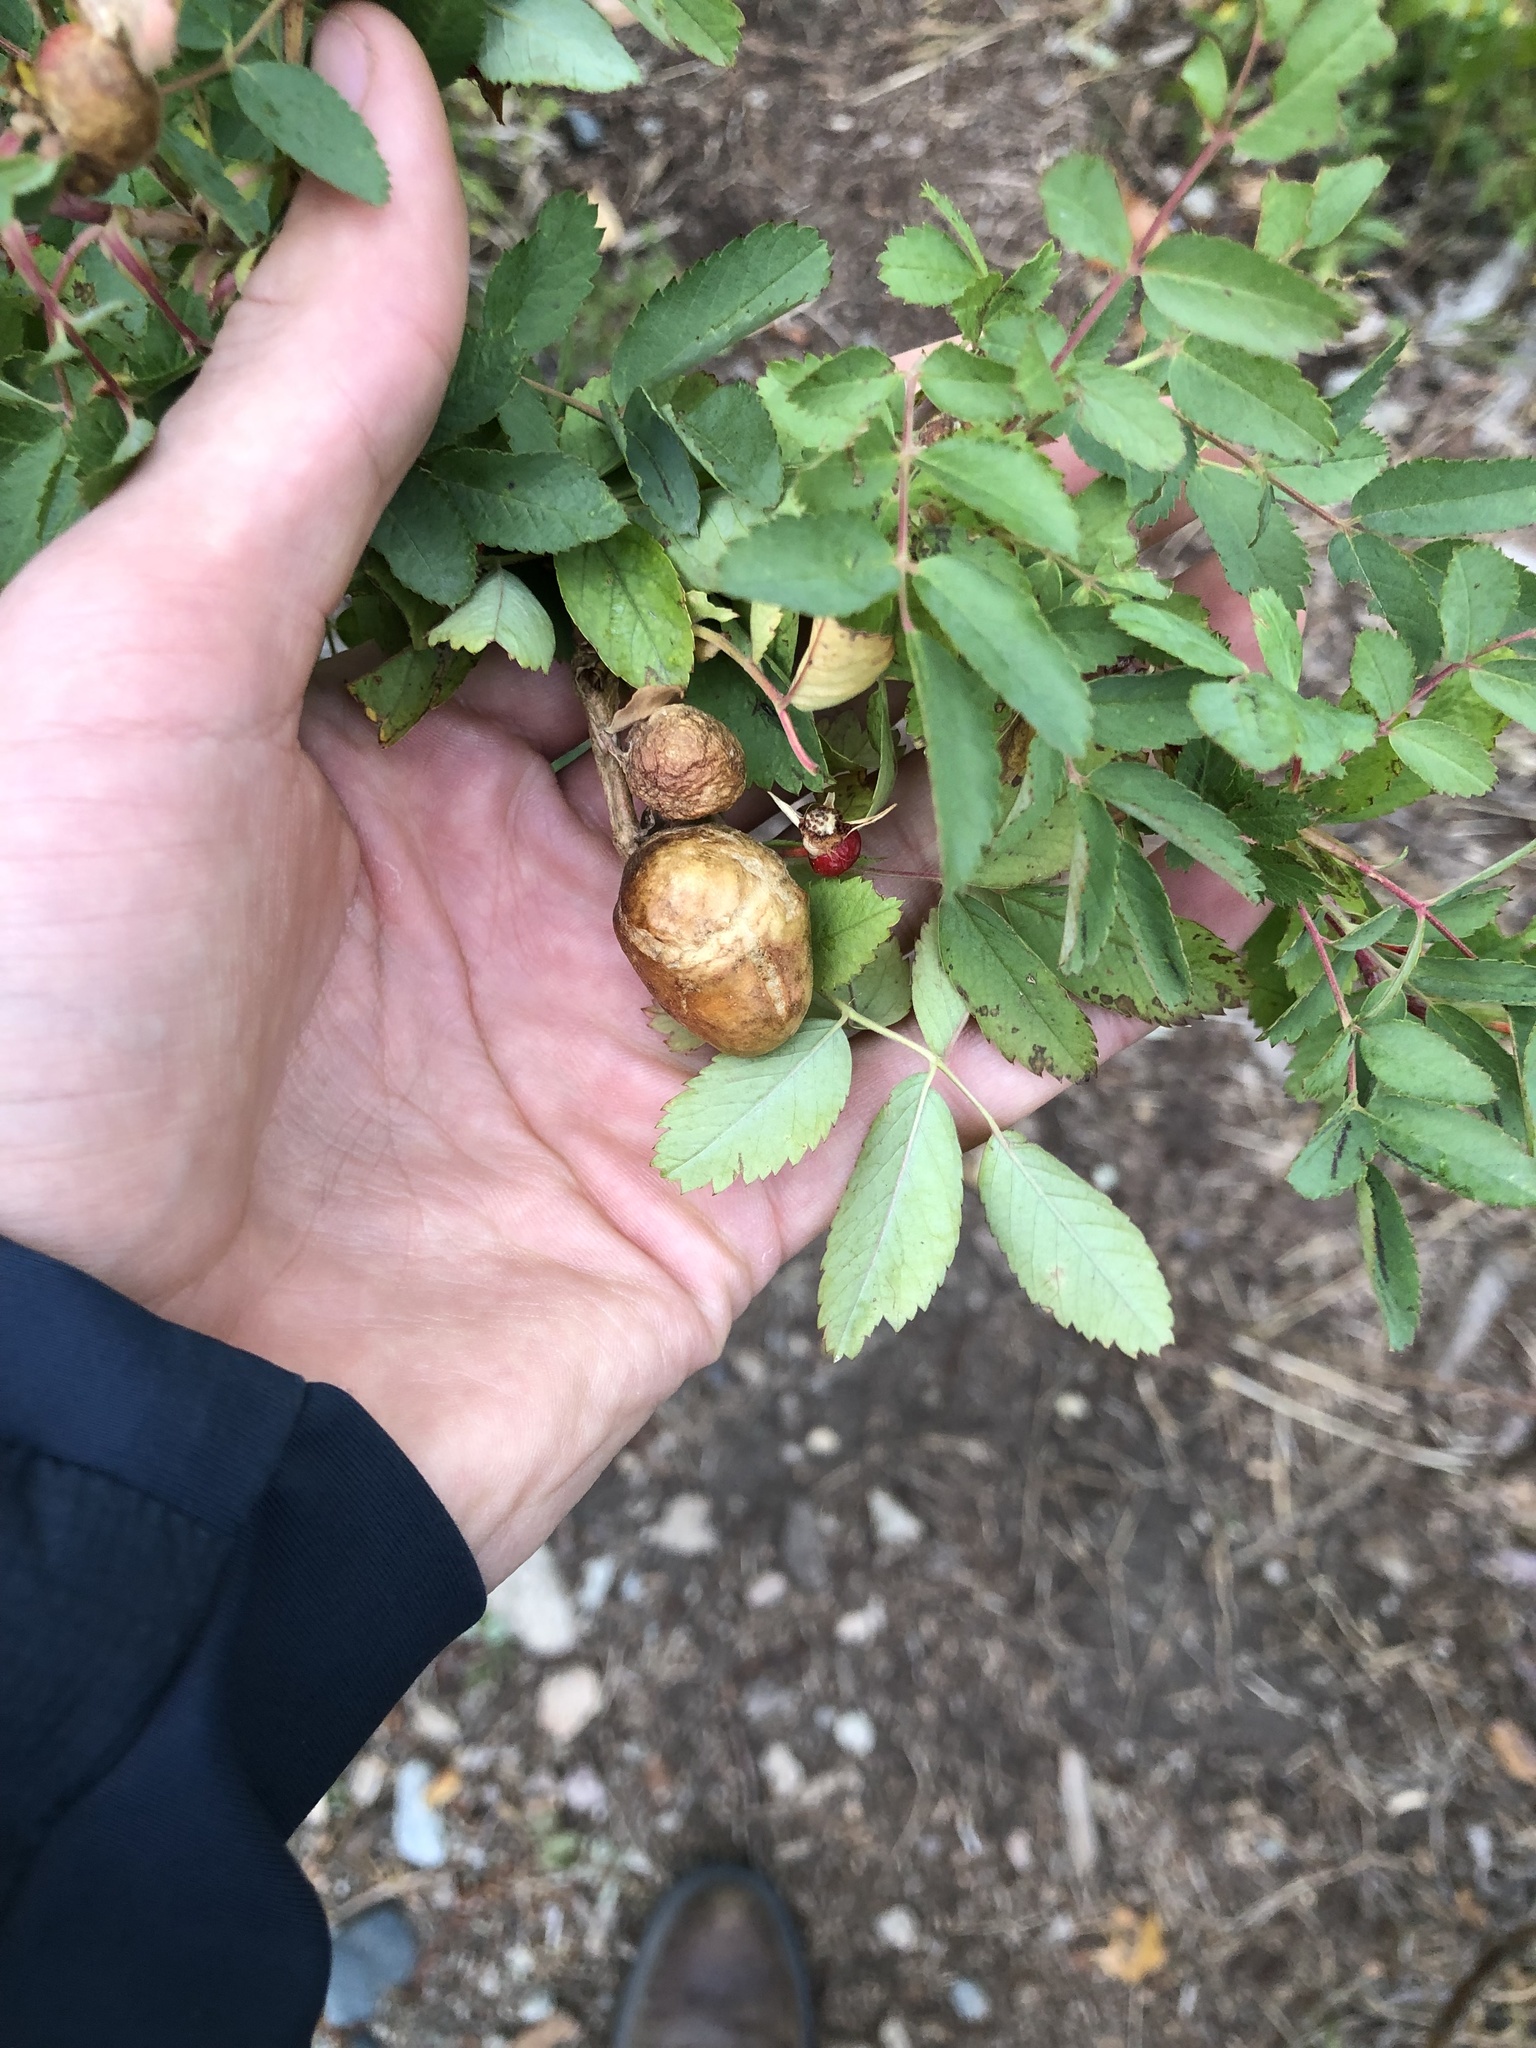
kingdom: Animalia
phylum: Arthropoda
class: Insecta
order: Hymenoptera
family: Cynipidae
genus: Diplolepis
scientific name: Diplolepis variabilis
